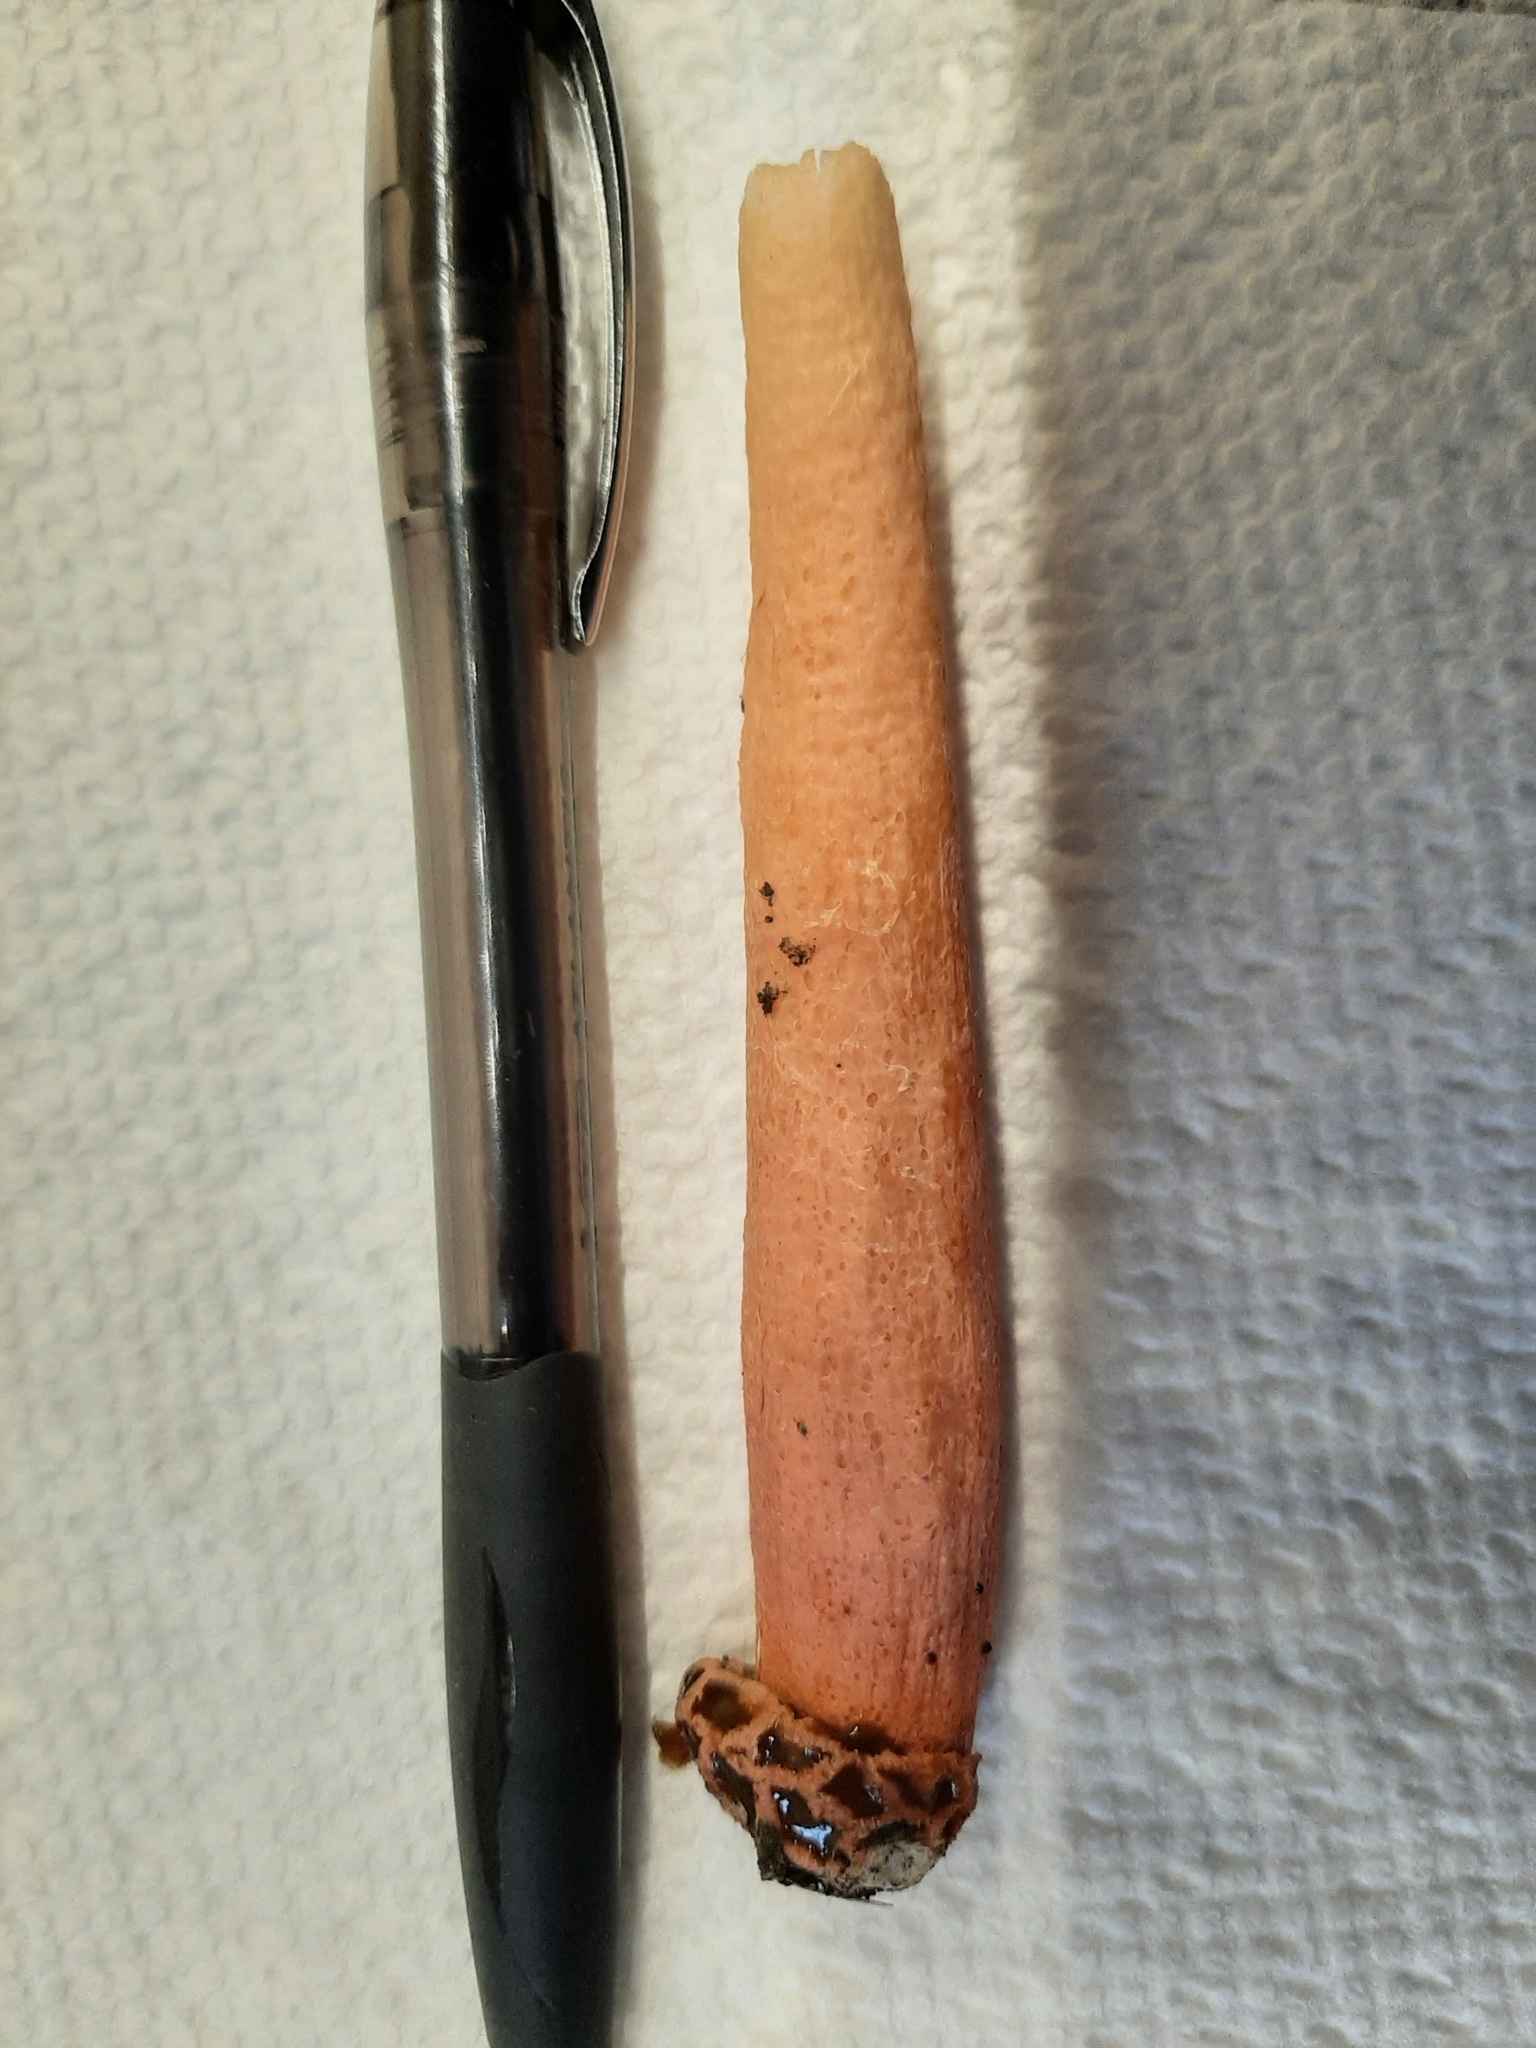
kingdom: Fungi
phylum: Basidiomycota
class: Agaricomycetes
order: Phallales
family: Phallaceae
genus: Lysurus
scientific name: Lysurus periphragmoides
